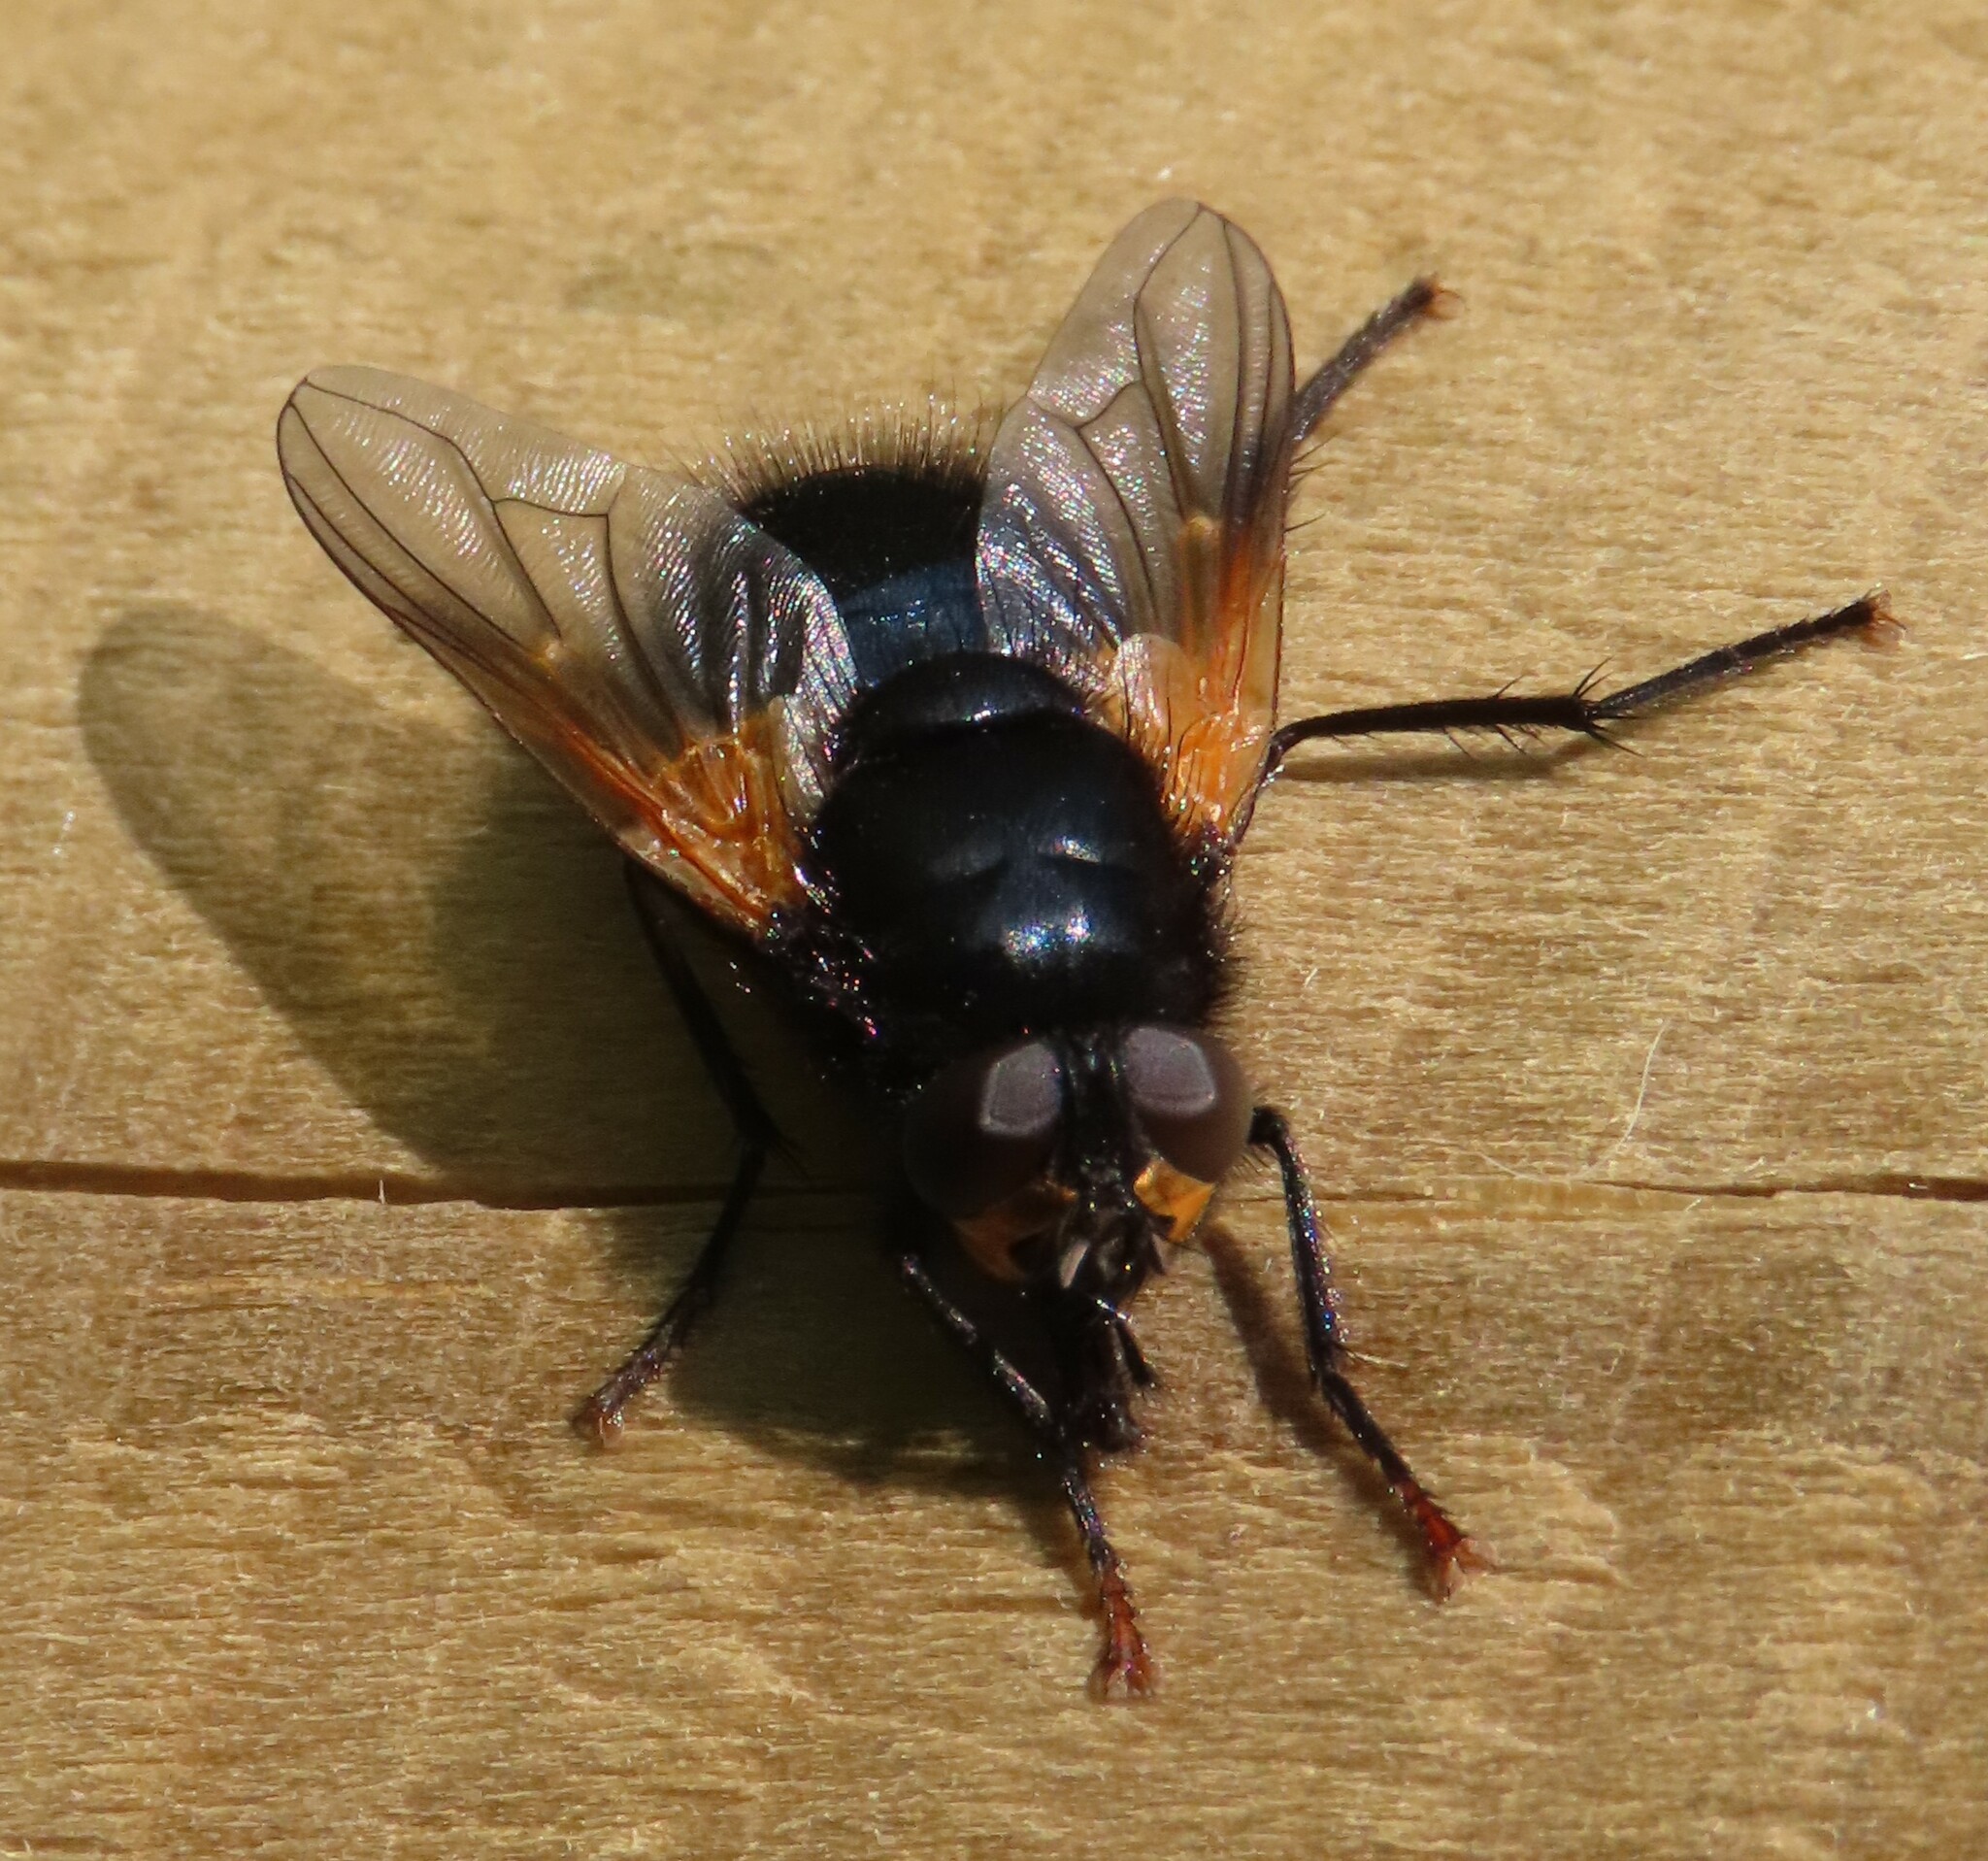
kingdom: Animalia
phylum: Arthropoda
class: Insecta
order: Diptera
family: Muscidae
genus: Mesembrina
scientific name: Mesembrina meridiana
